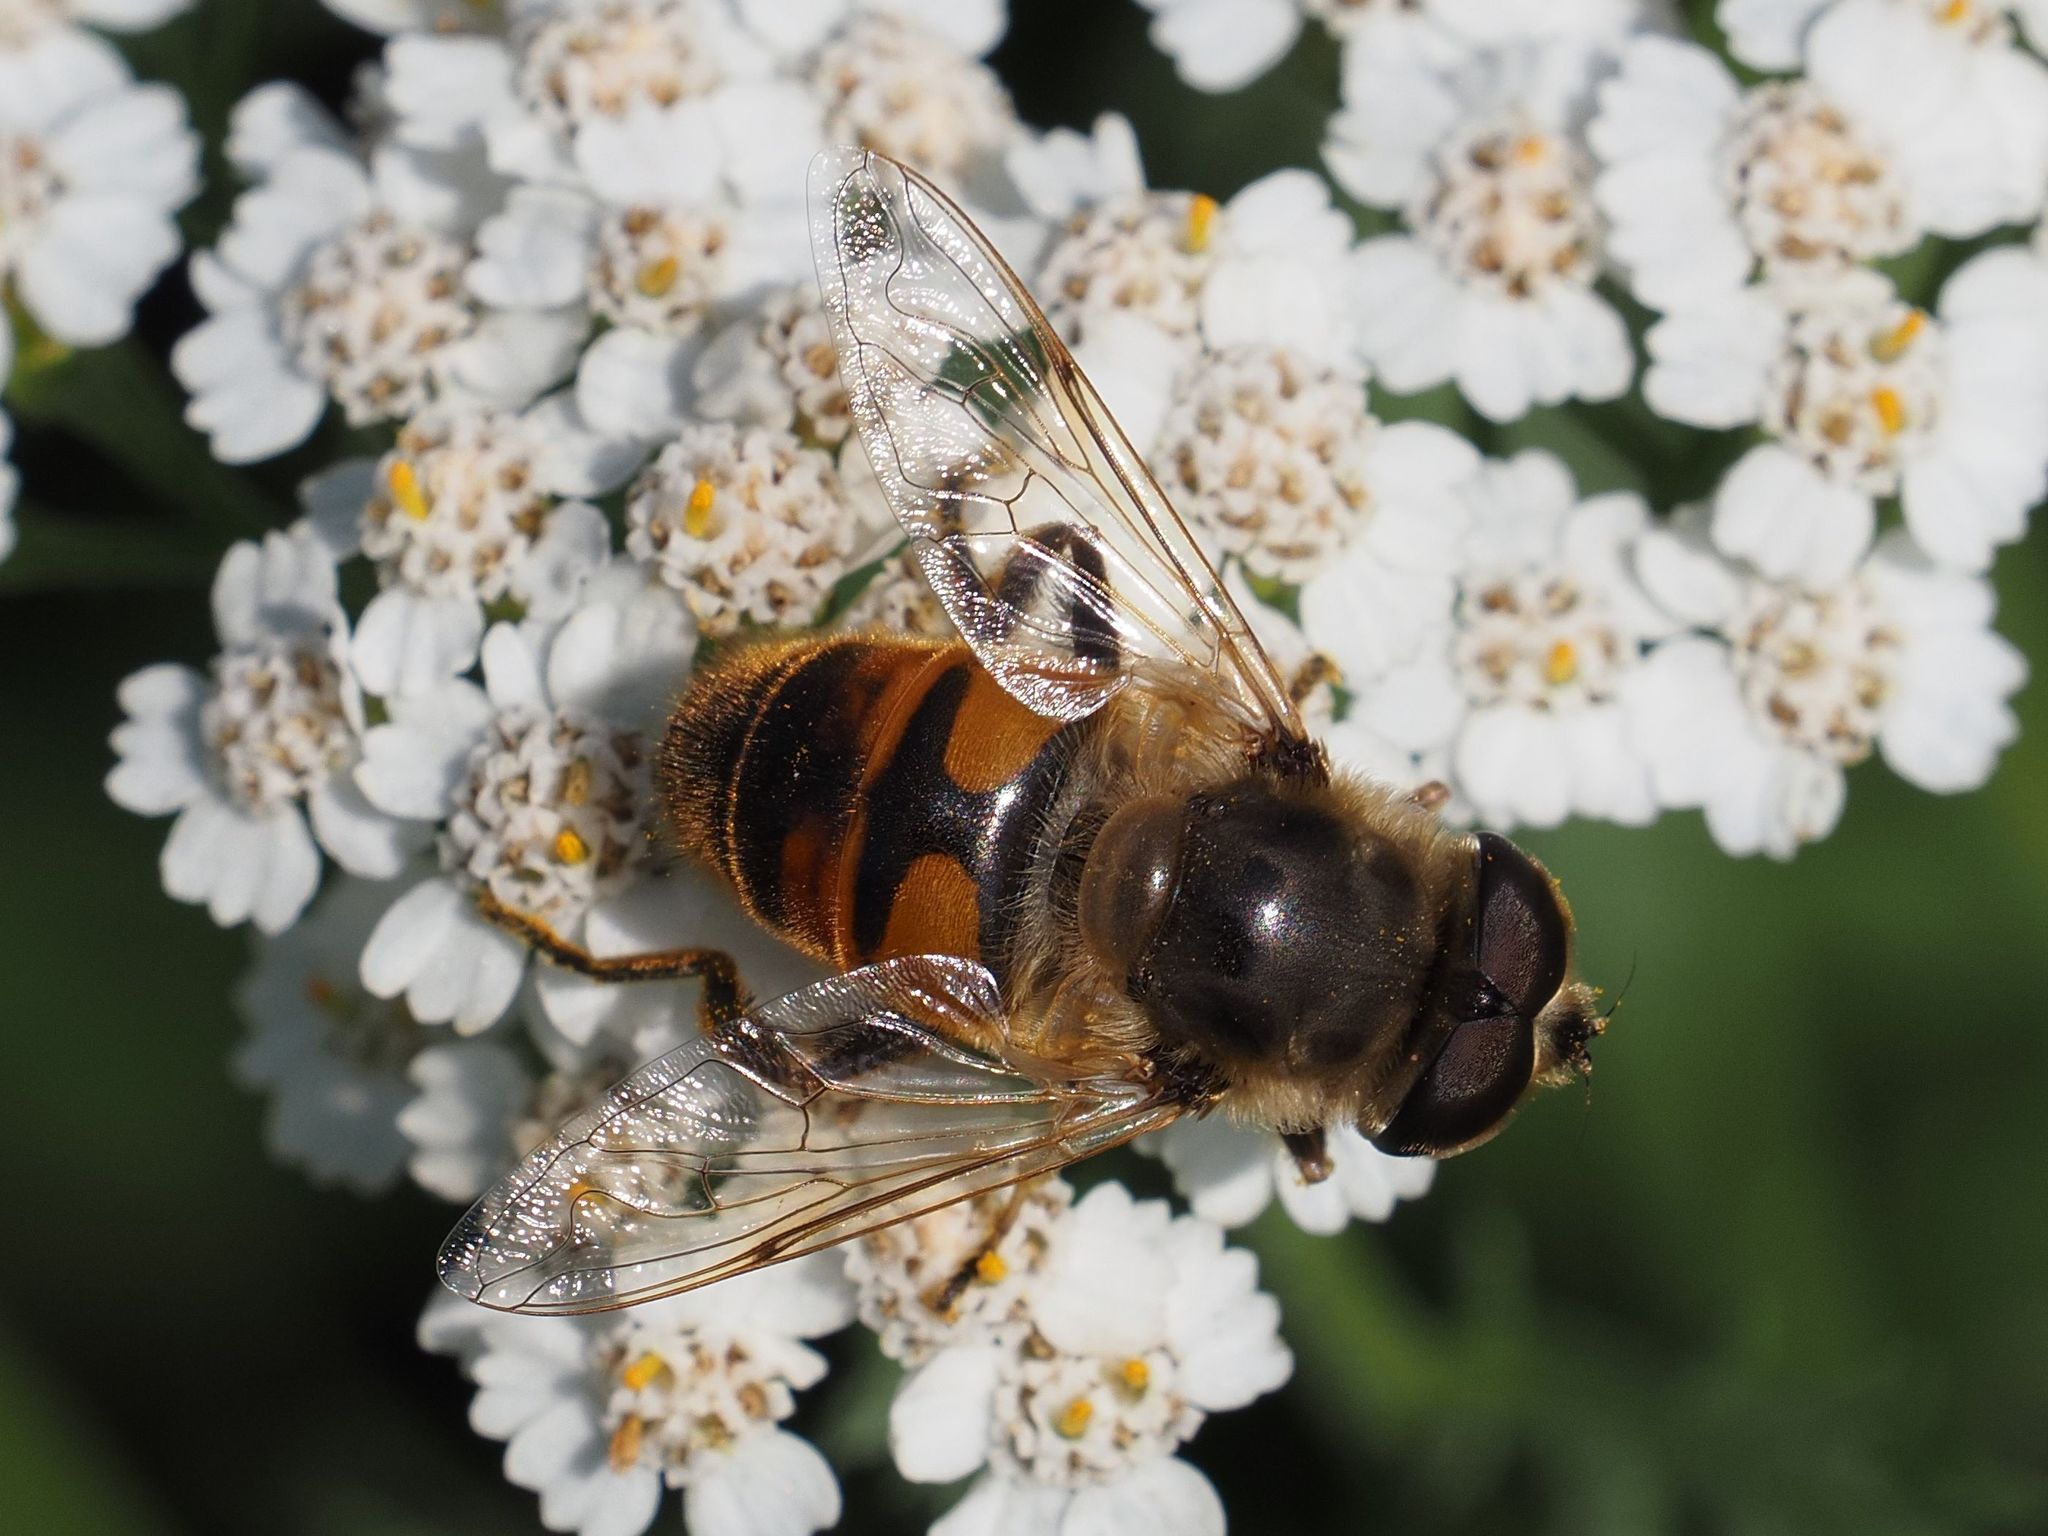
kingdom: Animalia
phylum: Arthropoda
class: Insecta
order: Diptera
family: Syrphidae
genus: Eristalis
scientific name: Eristalis tenax
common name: Drone fly
